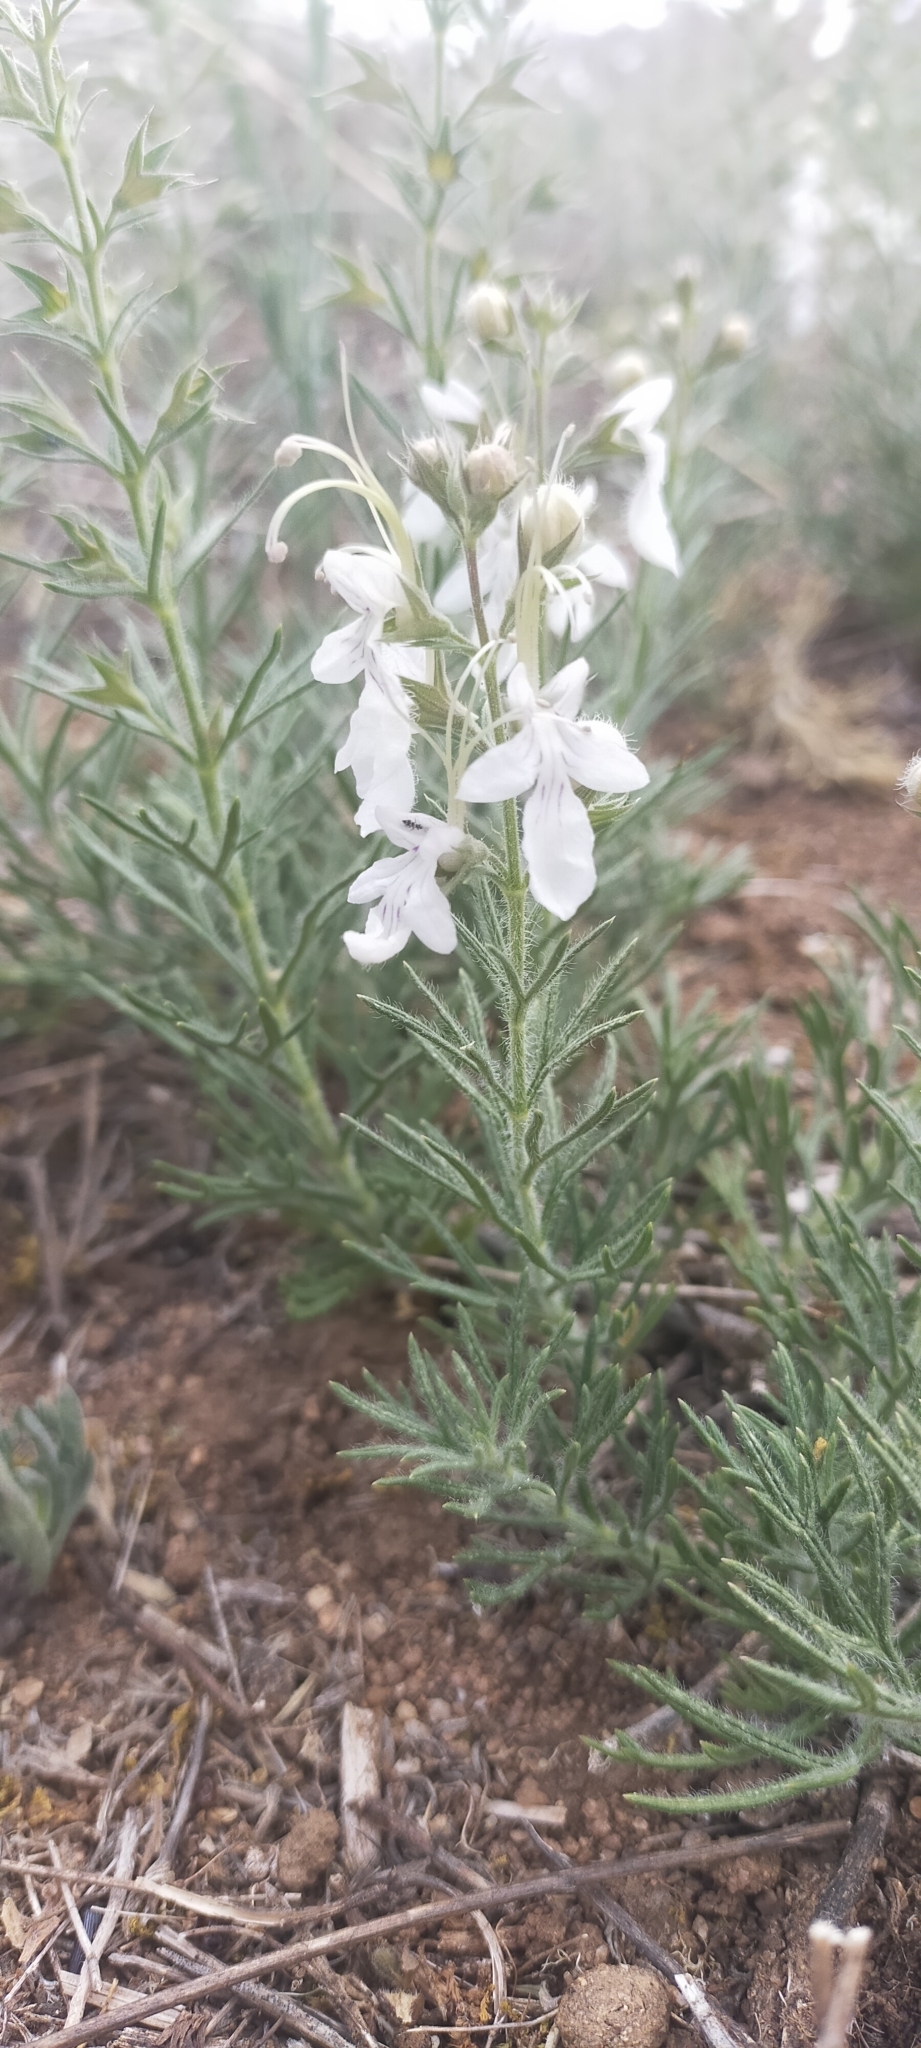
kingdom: Plantae
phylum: Tracheophyta
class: Magnoliopsida
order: Lamiales
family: Lamiaceae
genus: Teucrium
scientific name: Teucrium pseudochamaepitys
